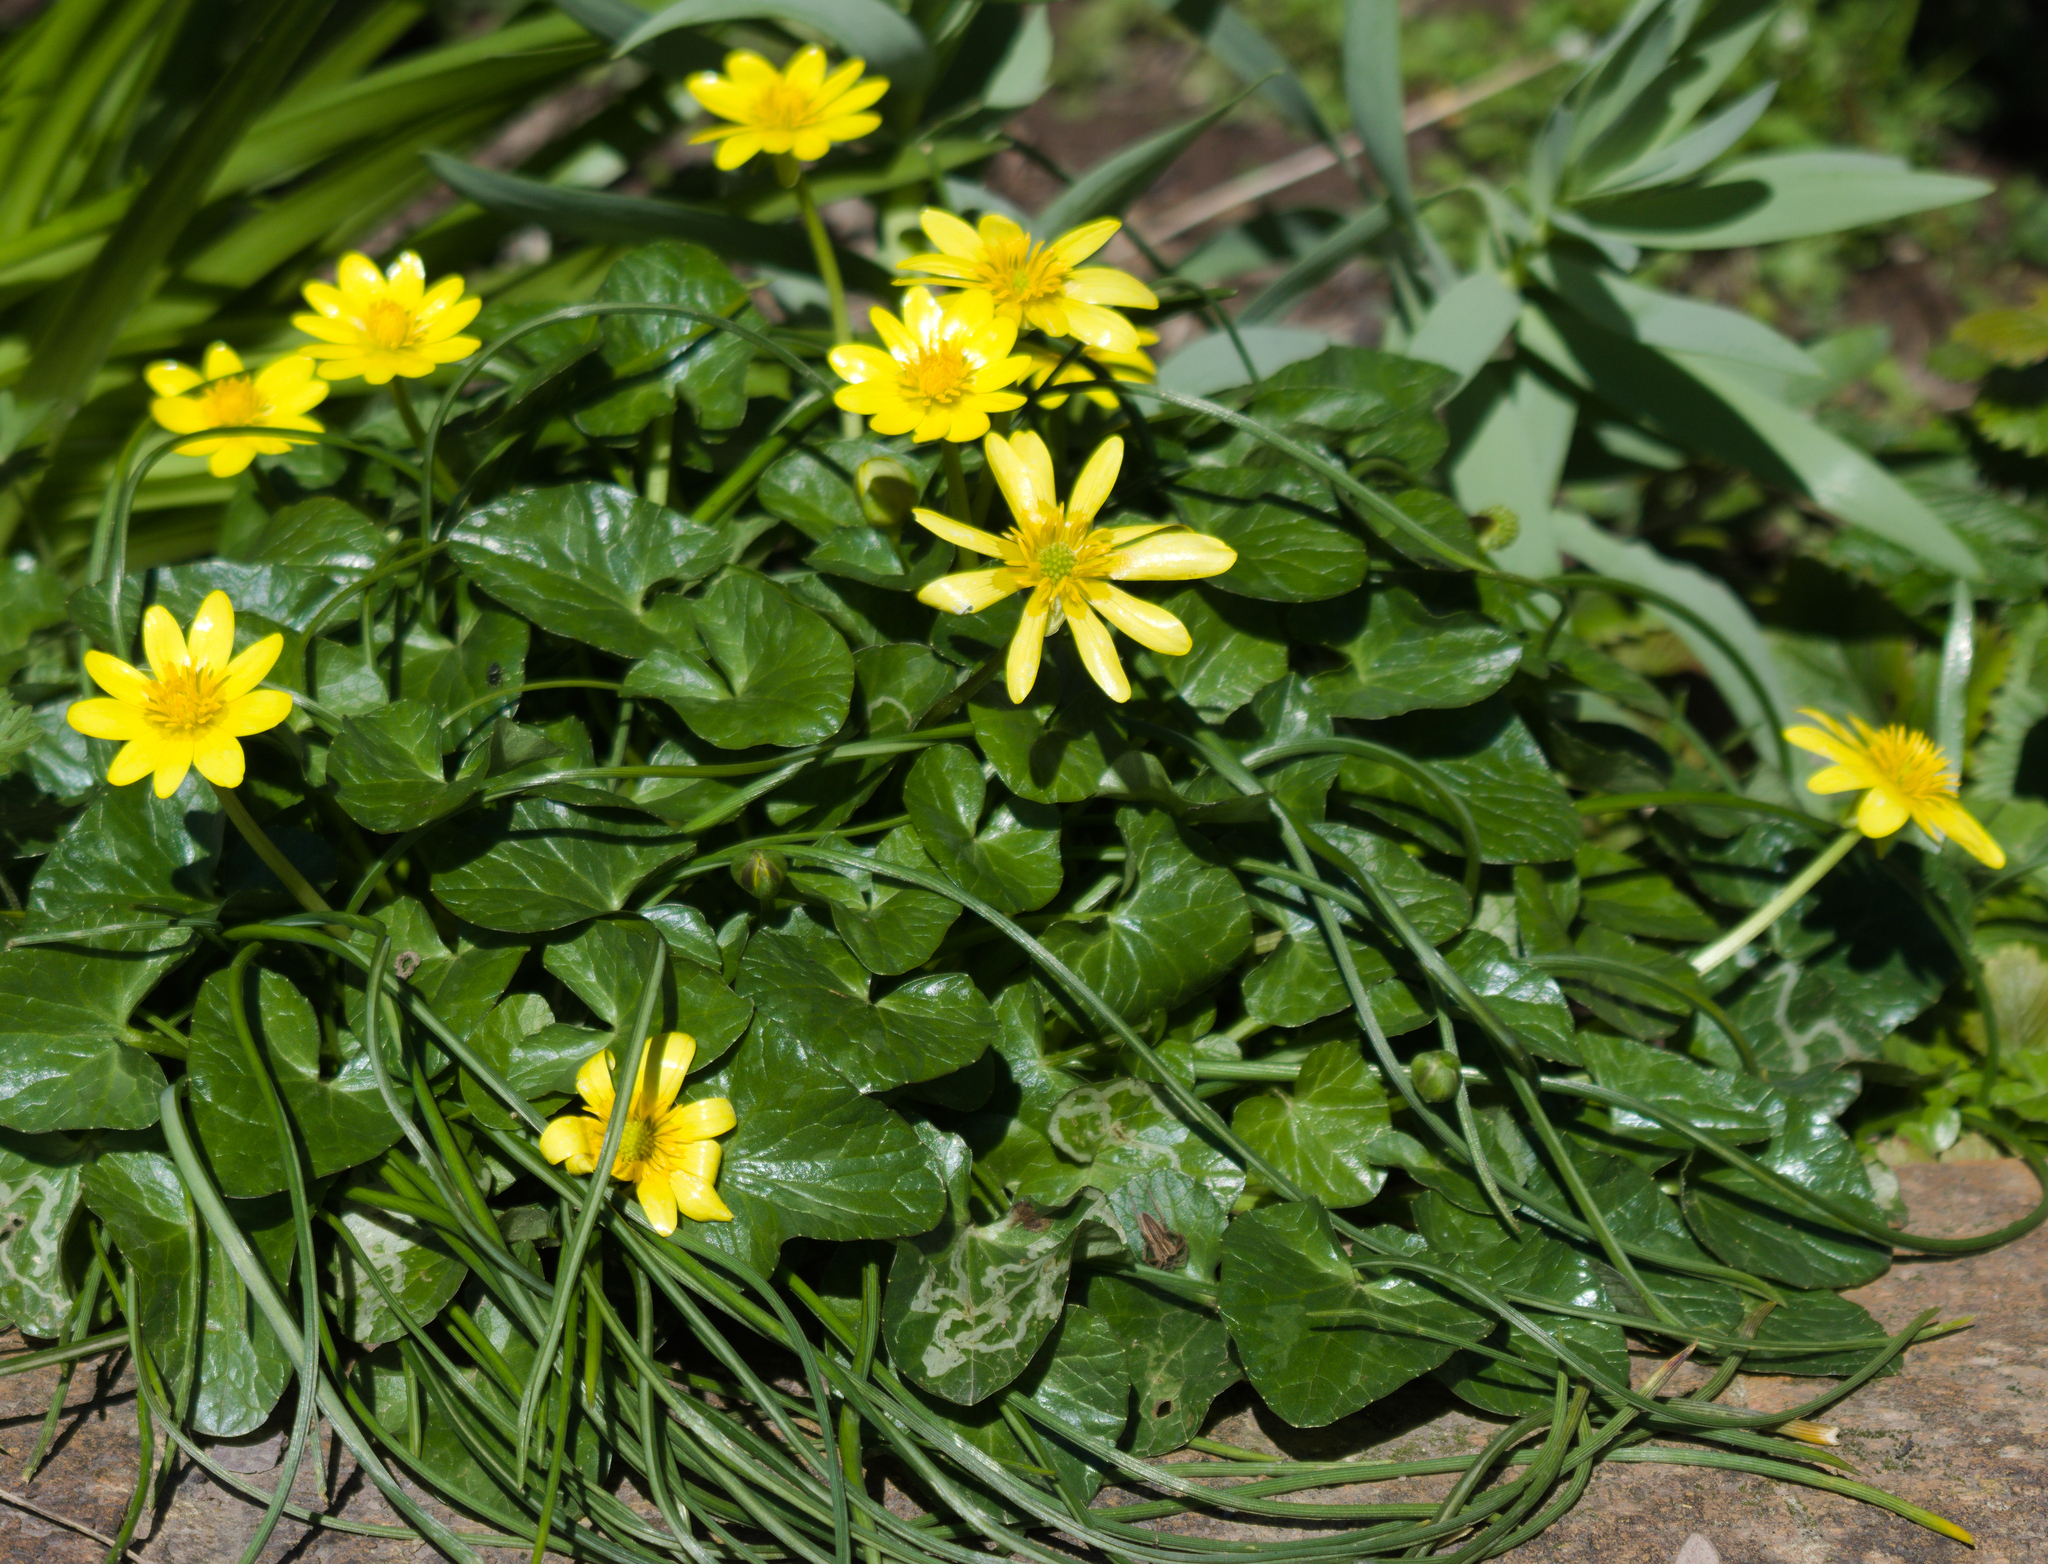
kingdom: Plantae
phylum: Tracheophyta
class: Magnoliopsida
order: Ranunculales
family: Ranunculaceae
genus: Ficaria
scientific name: Ficaria verna
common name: Lesser celandine
